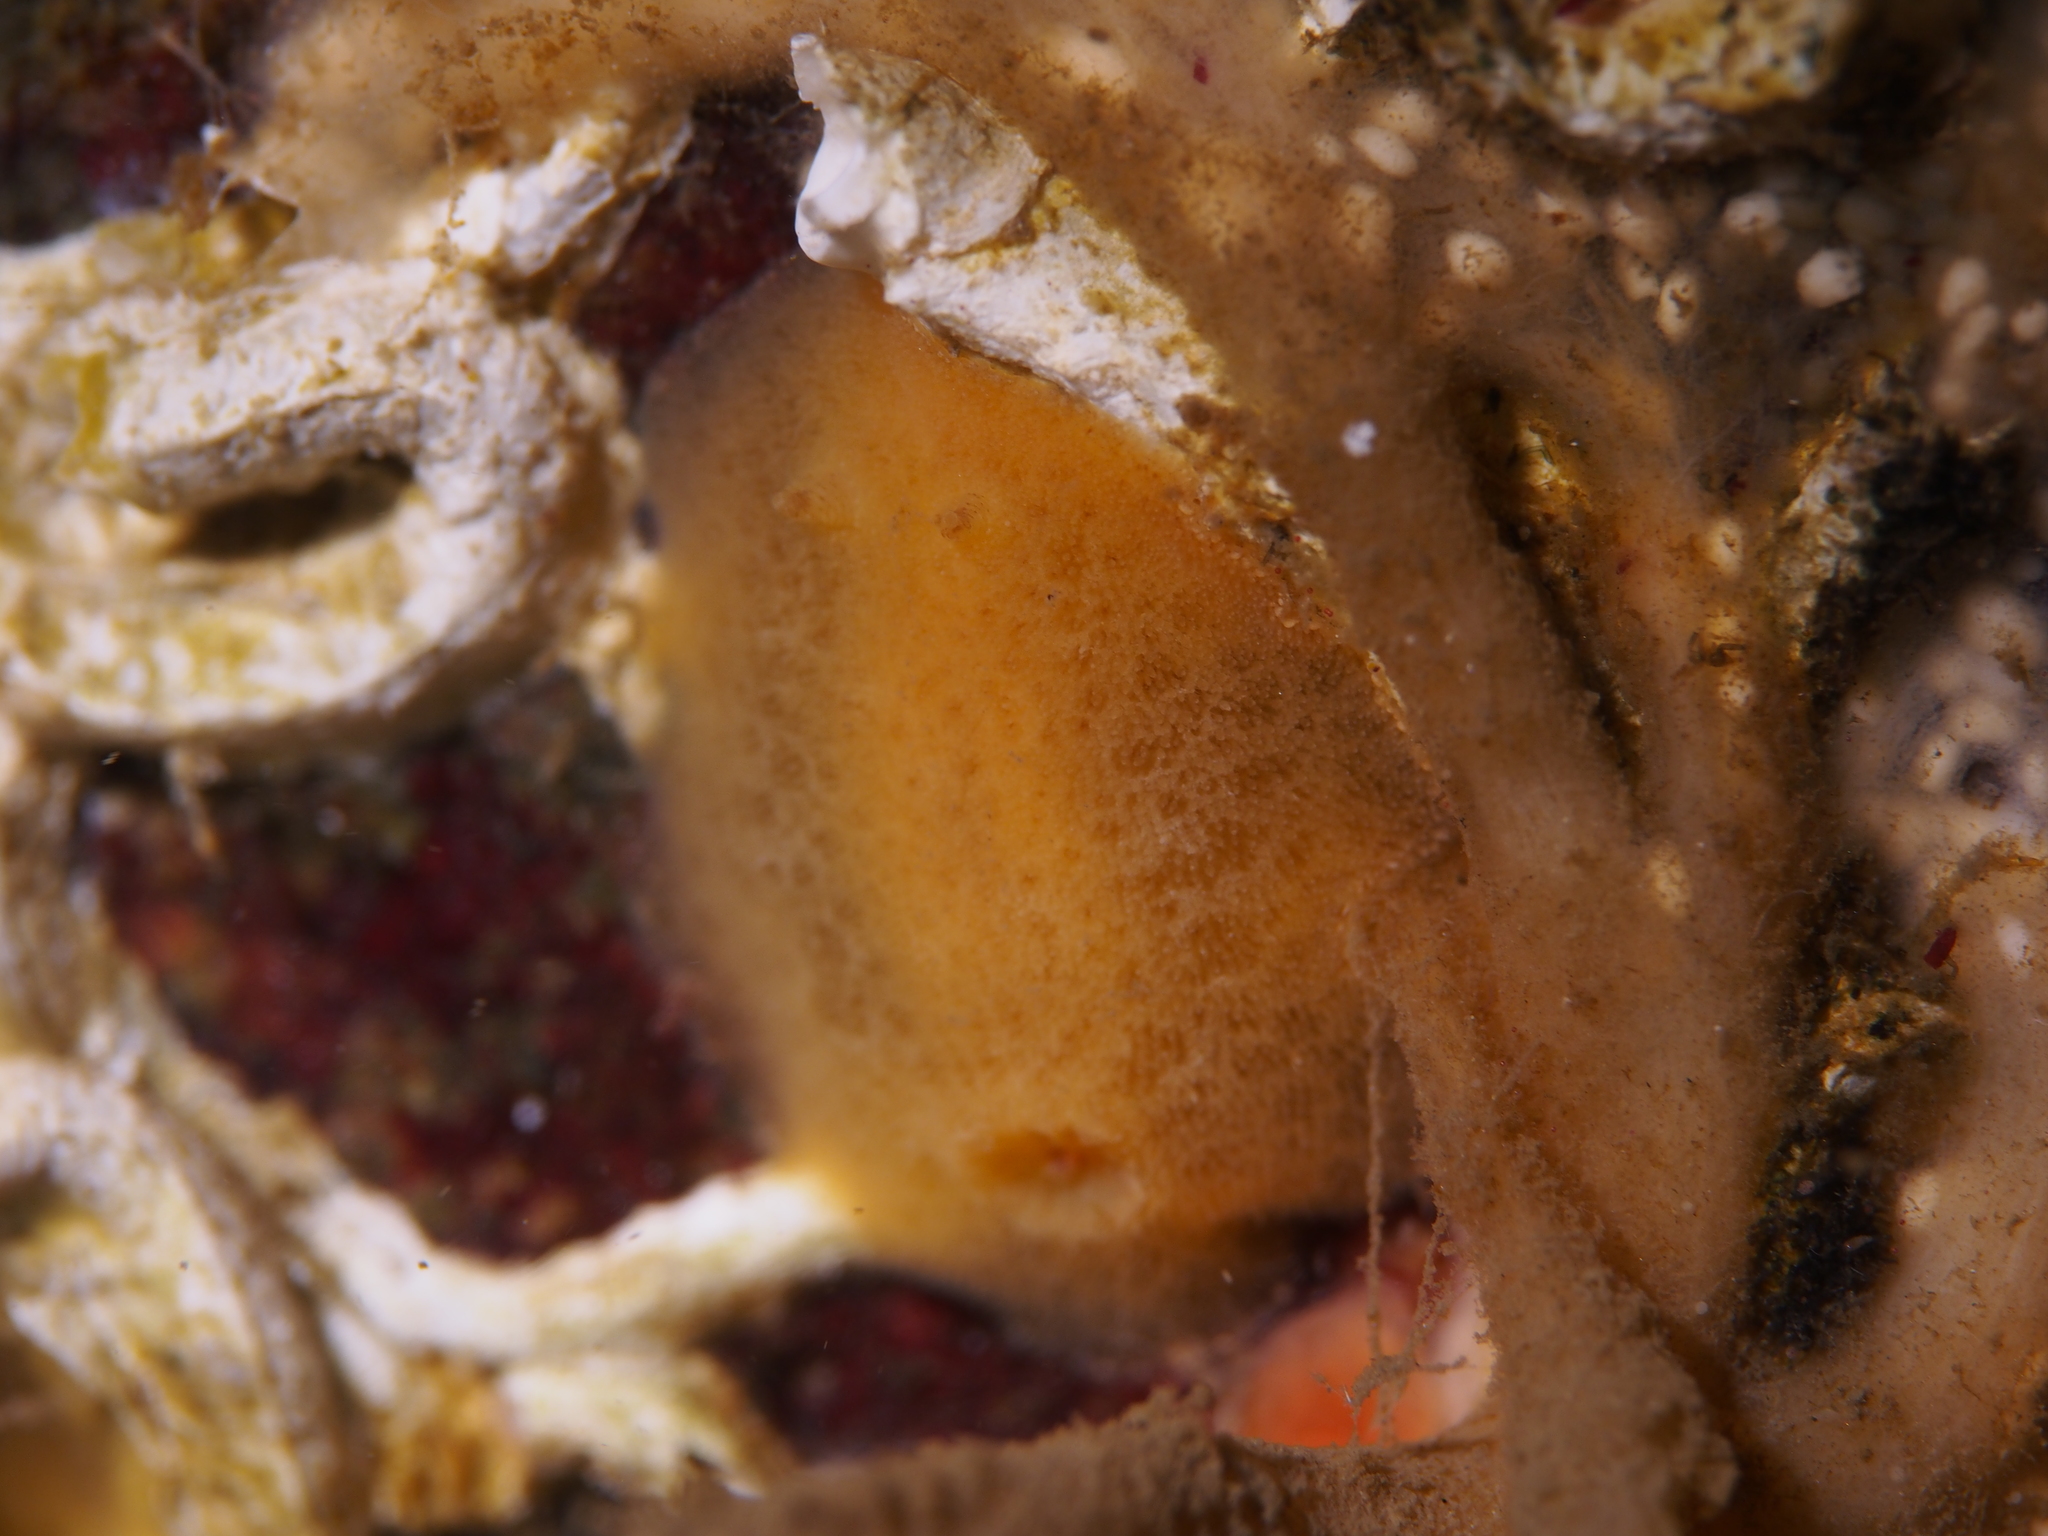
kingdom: Animalia
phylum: Mollusca
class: Gastropoda
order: Nudibranchia
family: Discodorididae
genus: Jorunna
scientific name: Jorunna tomentosa
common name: Grey sea slug
